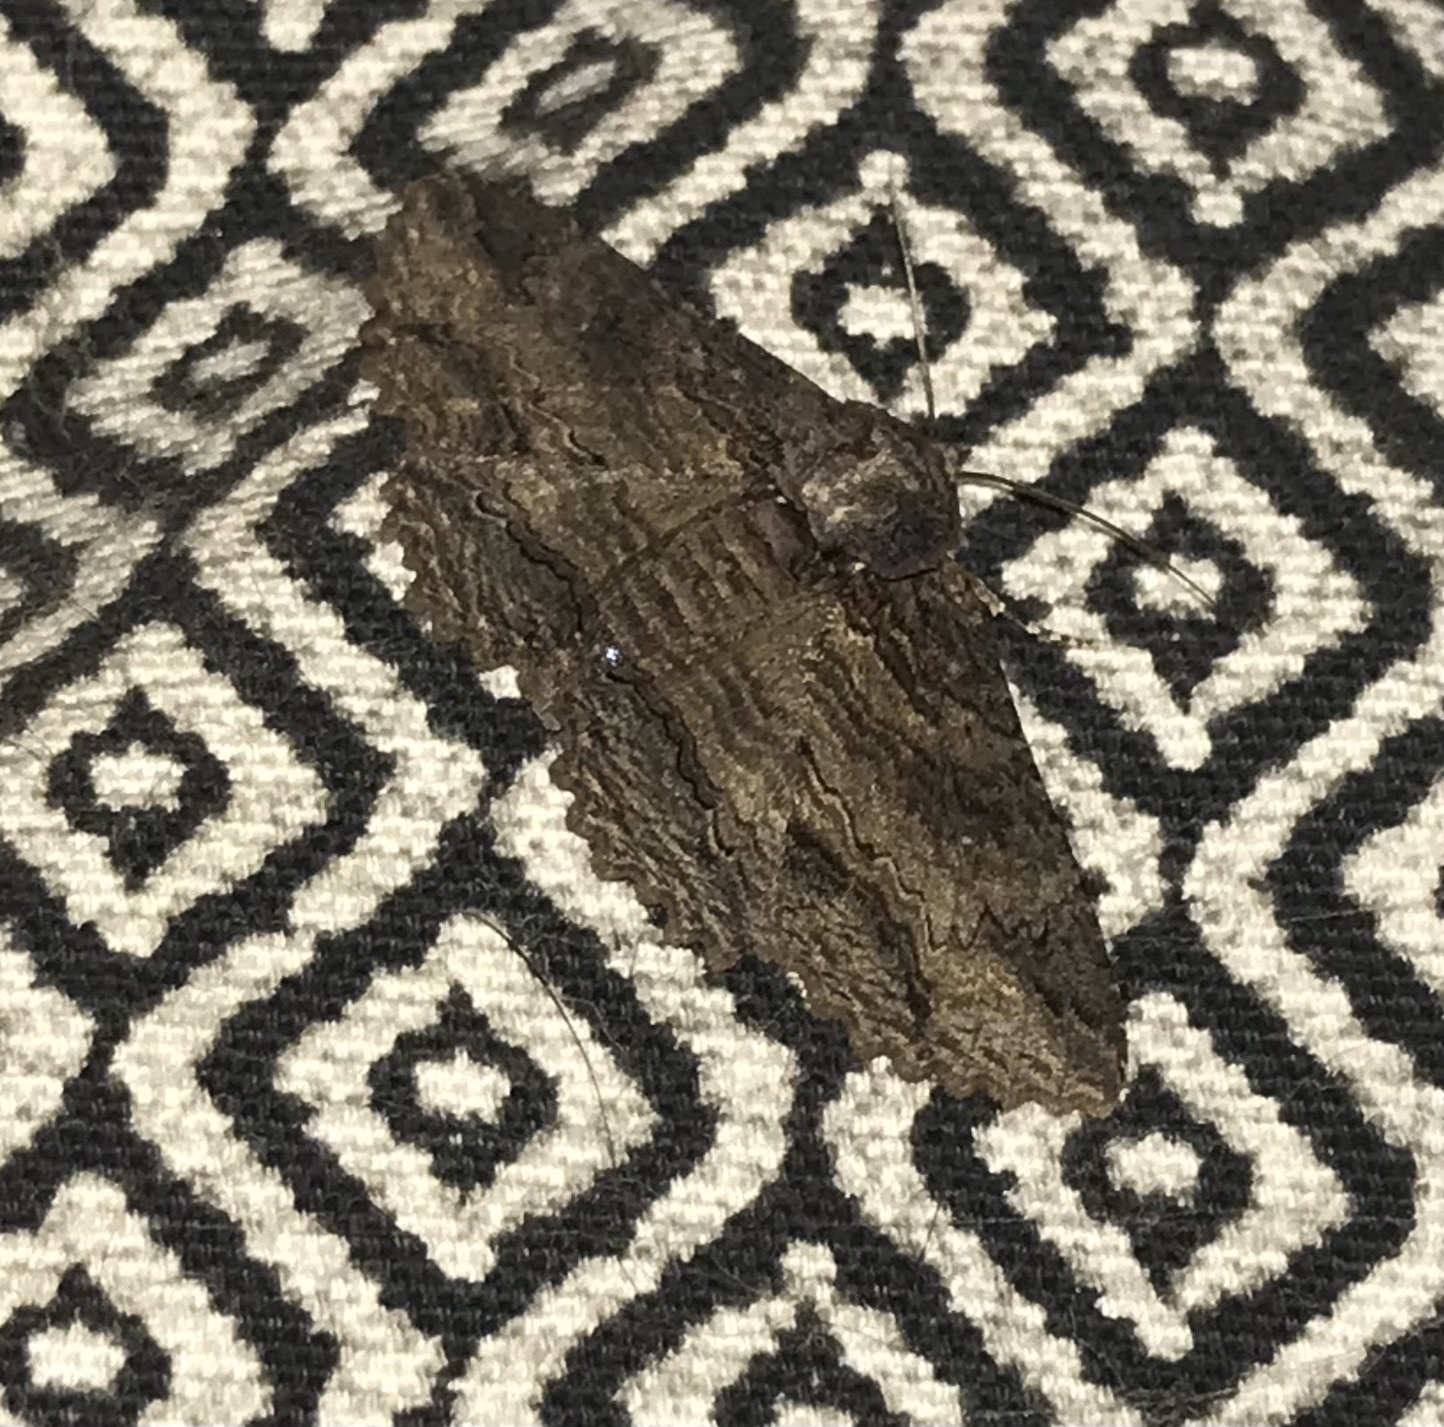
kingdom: Animalia
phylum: Arthropoda
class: Insecta
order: Lepidoptera
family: Erebidae
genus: Zale
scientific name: Zale lunata
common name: Lunate zale moth
